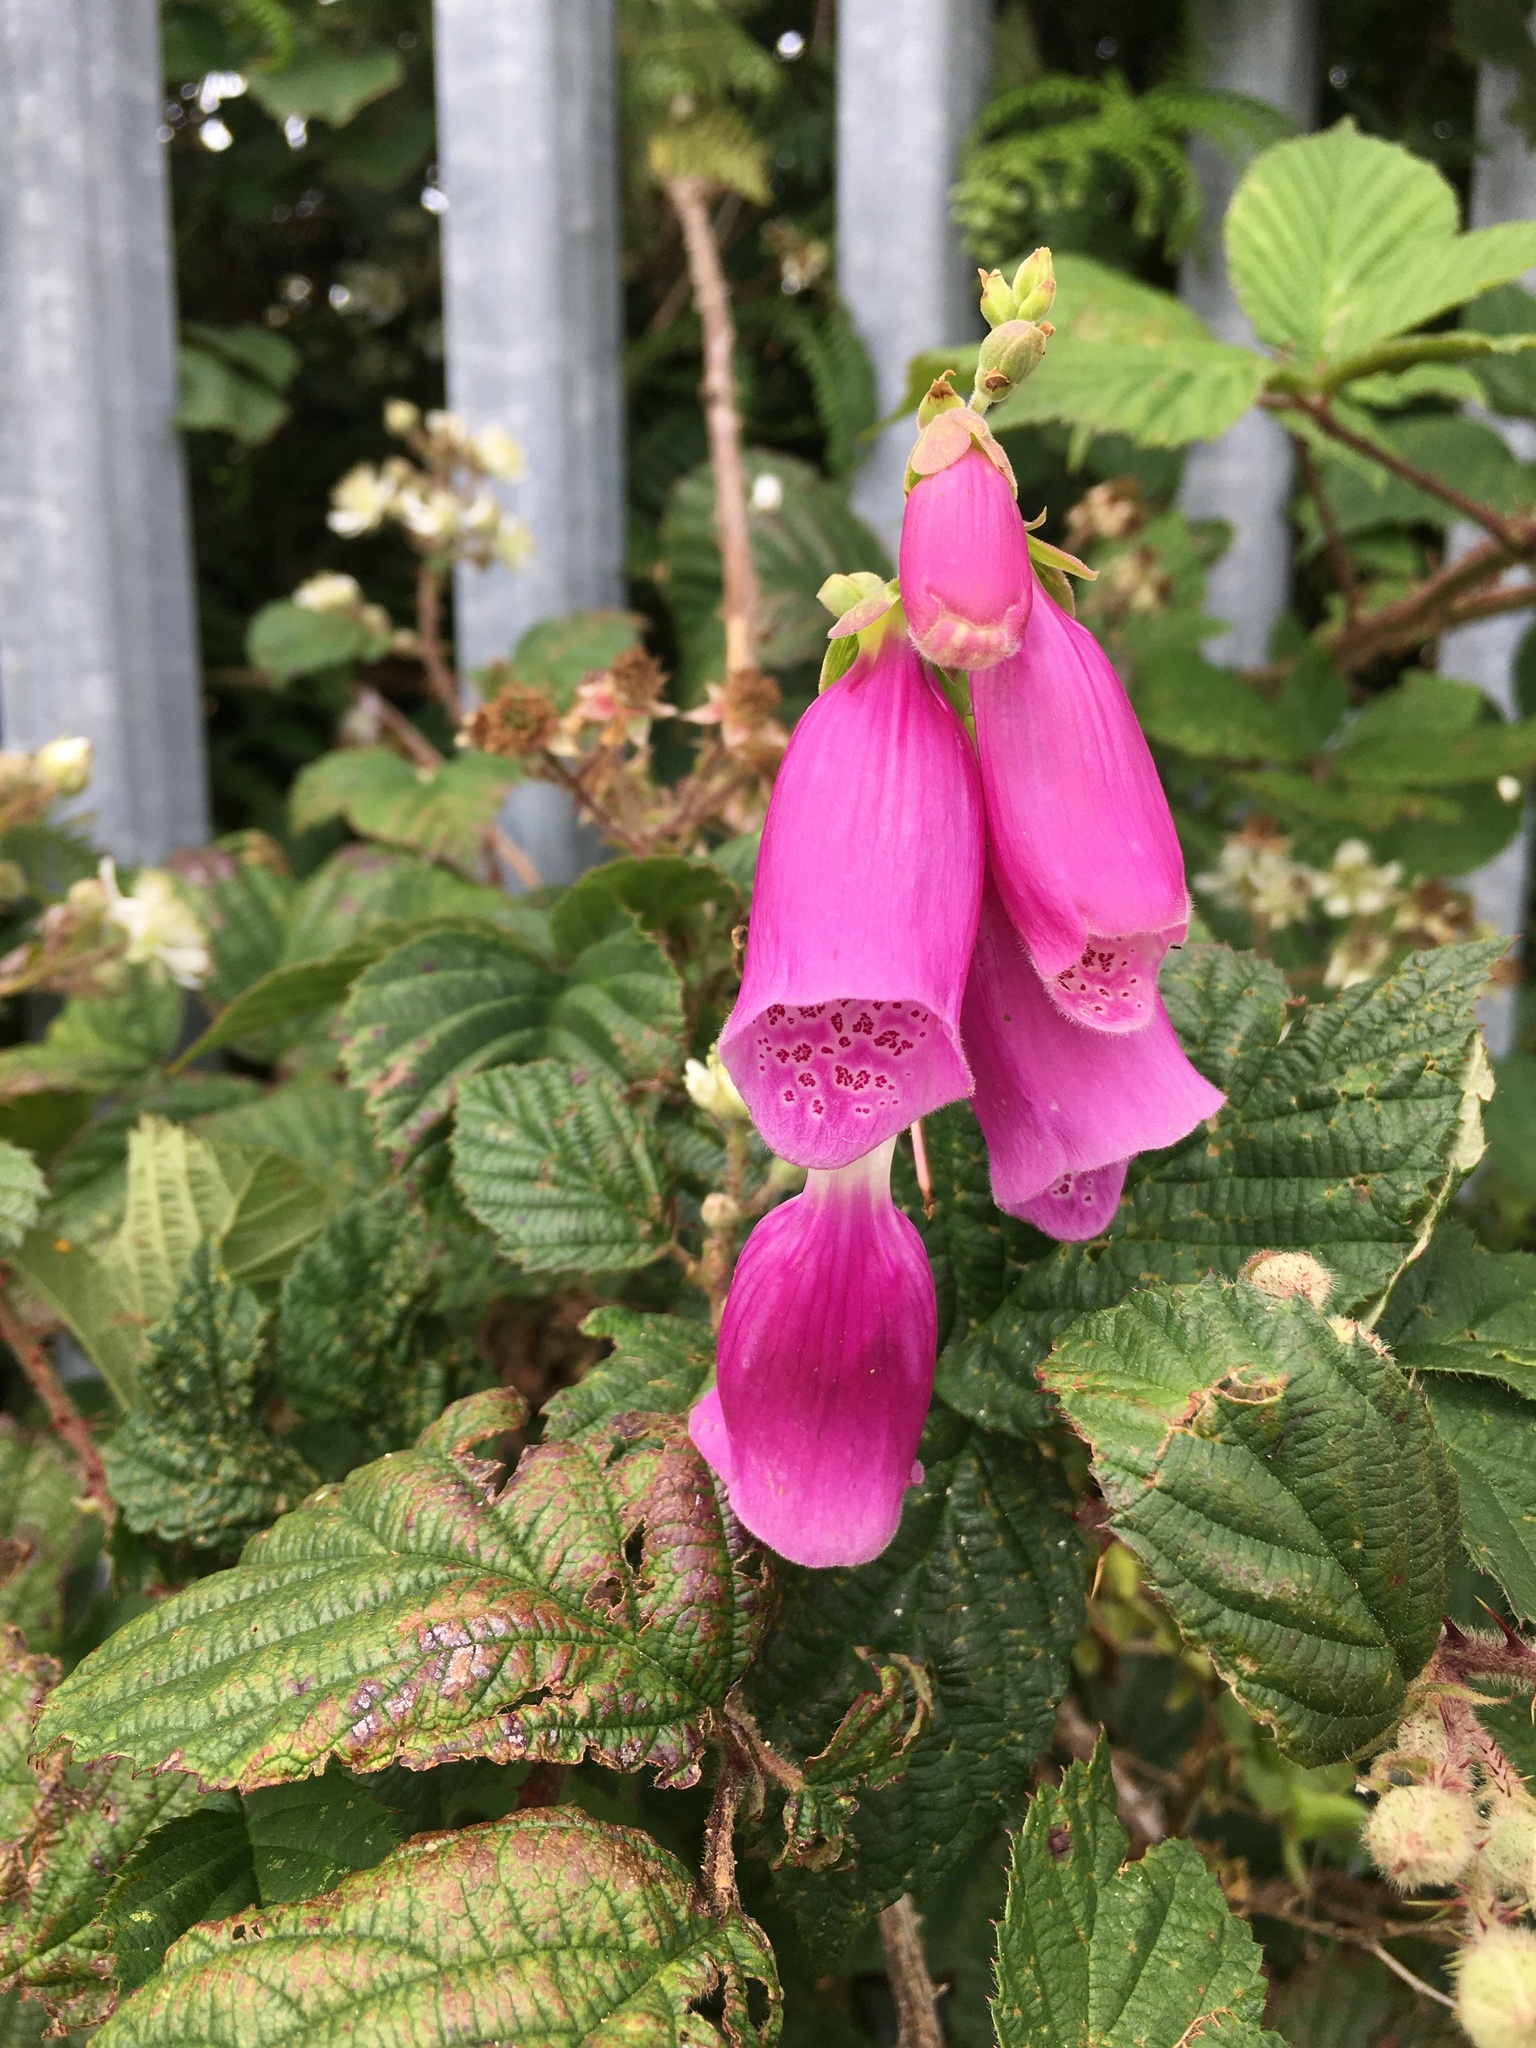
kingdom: Plantae
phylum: Tracheophyta
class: Magnoliopsida
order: Lamiales
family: Plantaginaceae
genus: Digitalis
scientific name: Digitalis purpurea
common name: Foxglove
